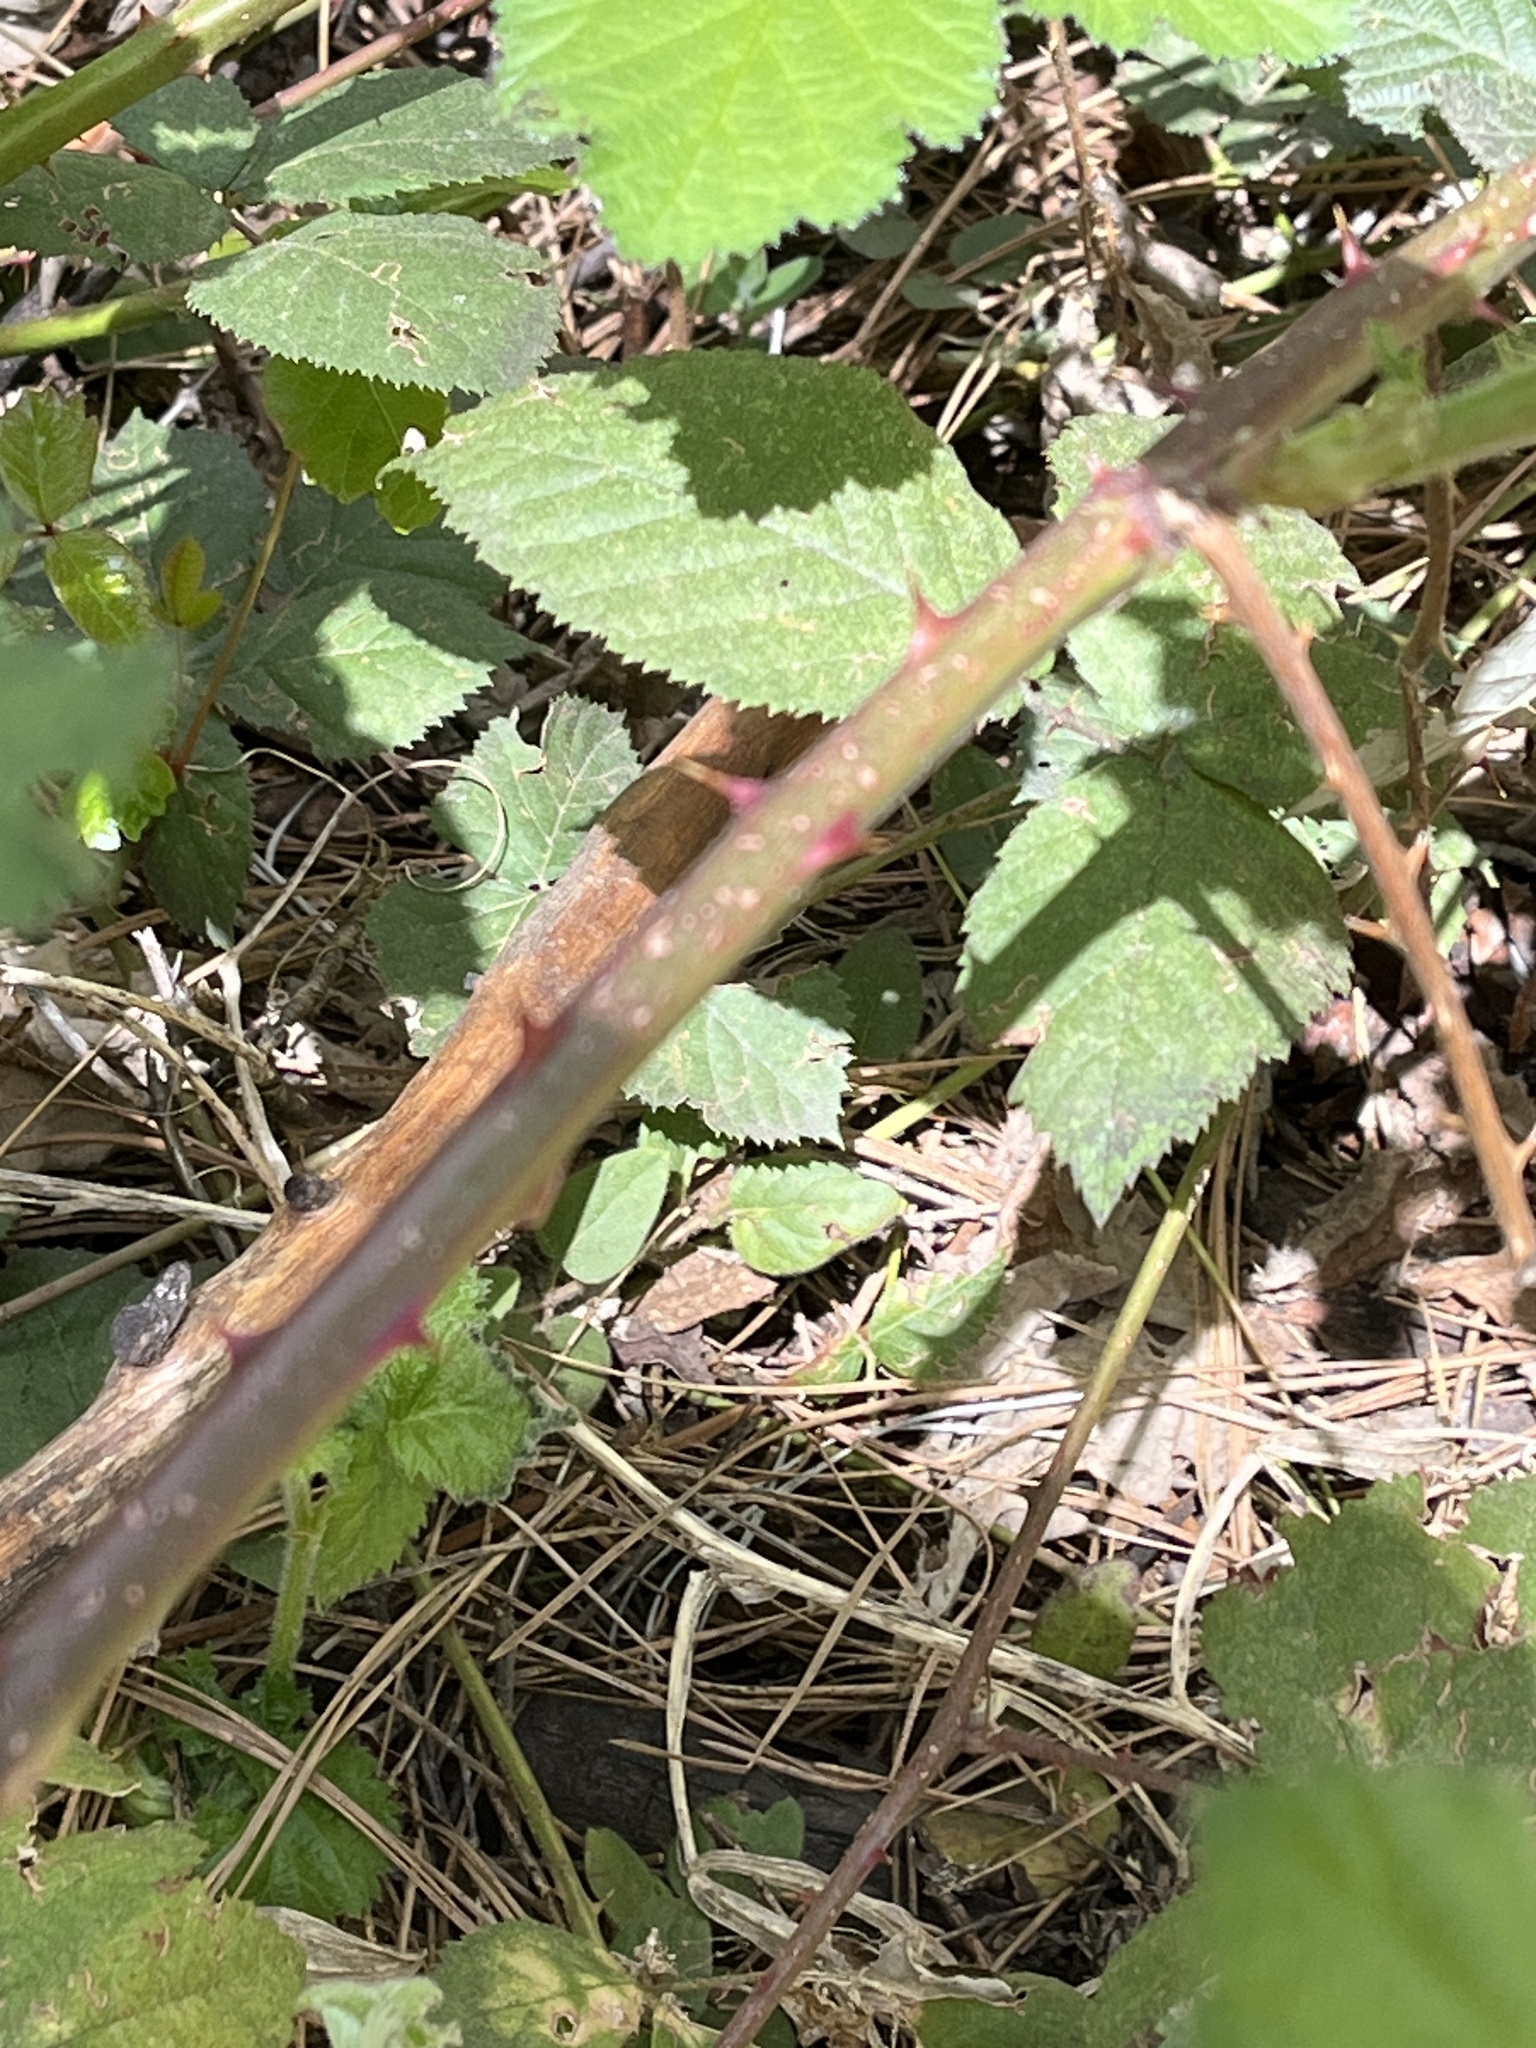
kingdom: Plantae
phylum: Tracheophyta
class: Magnoliopsida
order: Rosales
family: Rosaceae
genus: Rubus
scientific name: Rubus armeniacus
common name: Himalayan blackberry
